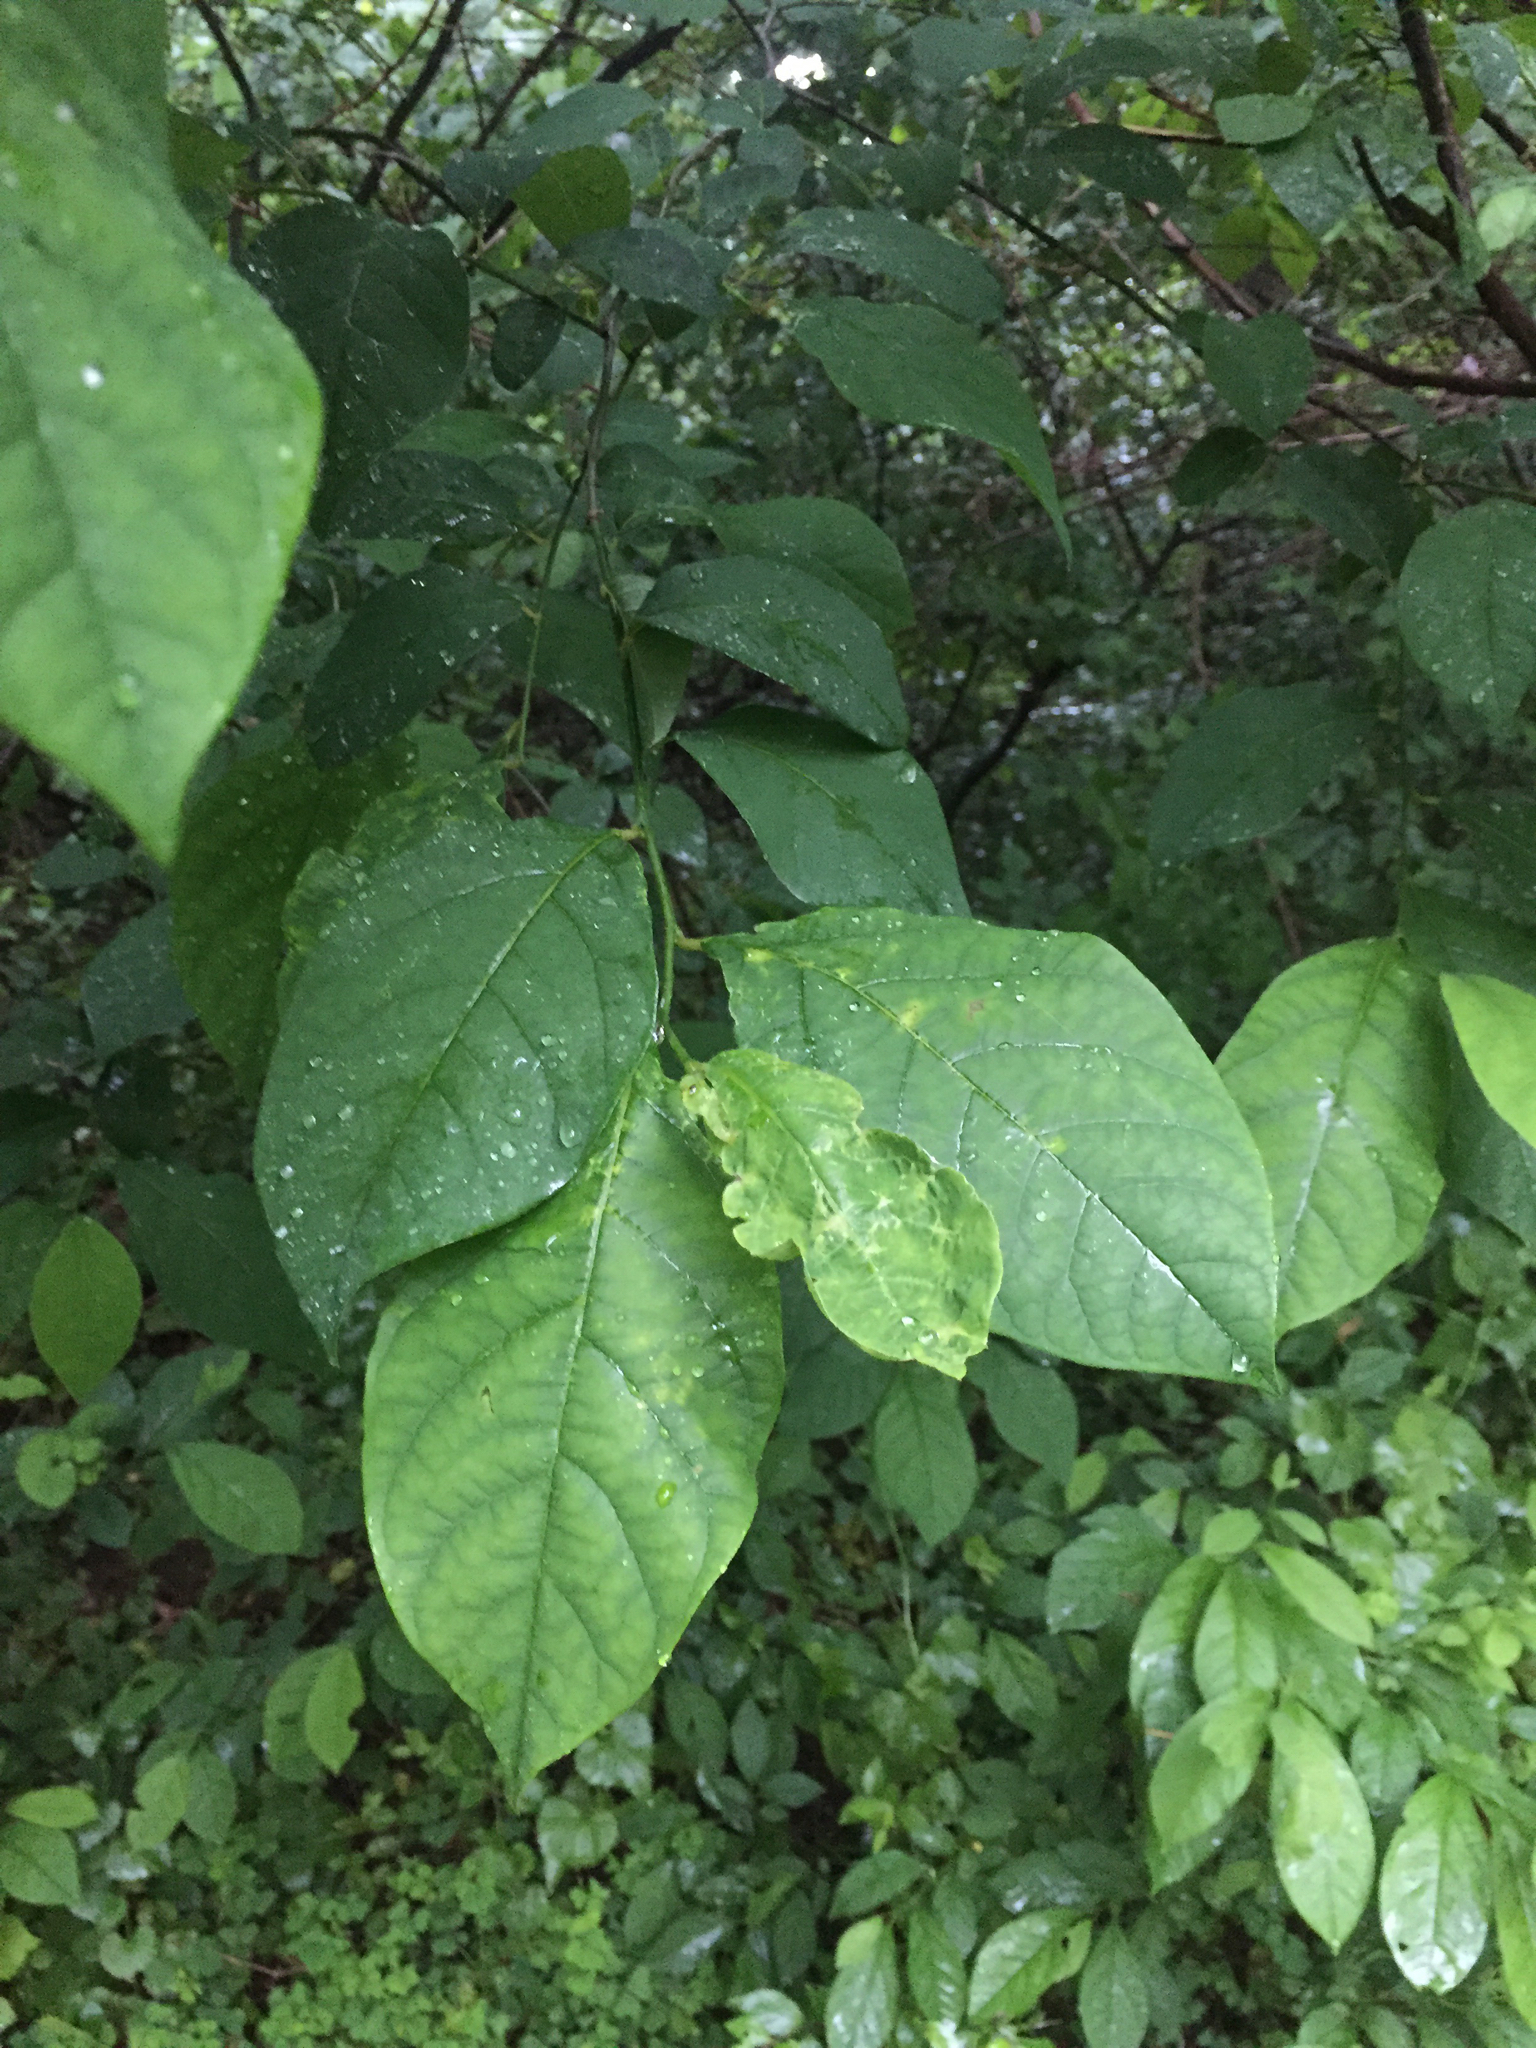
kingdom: Plantae
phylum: Tracheophyta
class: Magnoliopsida
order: Laurales
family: Lauraceae
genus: Lindera
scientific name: Lindera benzoin
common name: Spicebush
